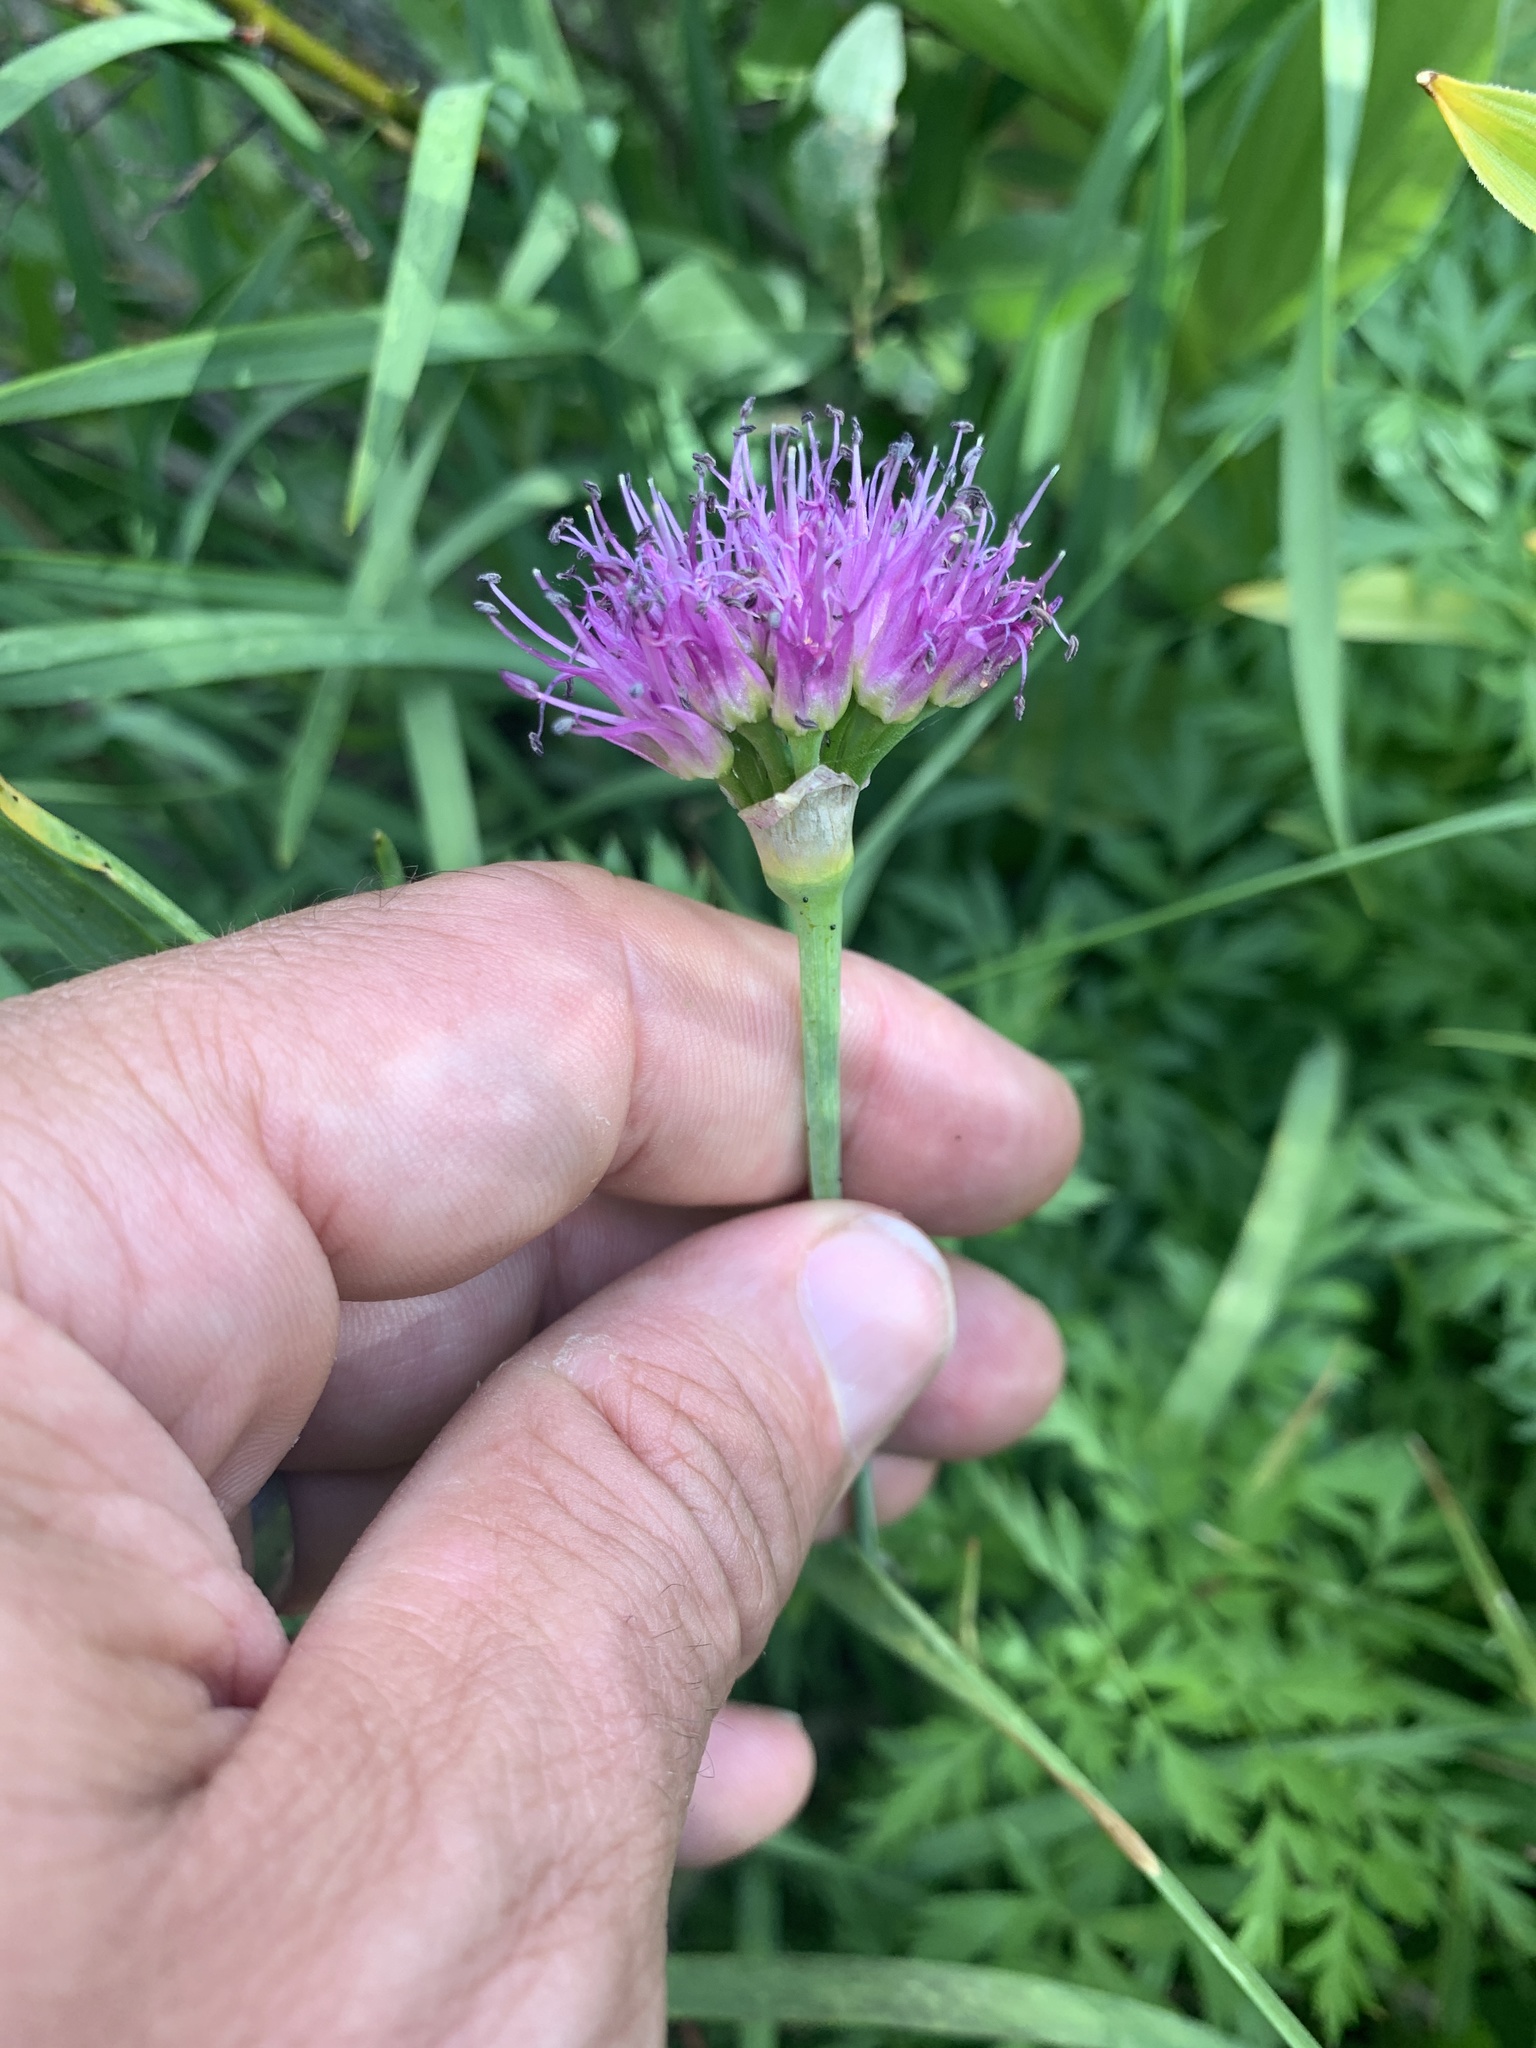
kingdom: Plantae
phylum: Tracheophyta
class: Liliopsida
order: Asparagales
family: Amaryllidaceae
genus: Allium
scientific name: Allium validum
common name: Pacific mountain onion
